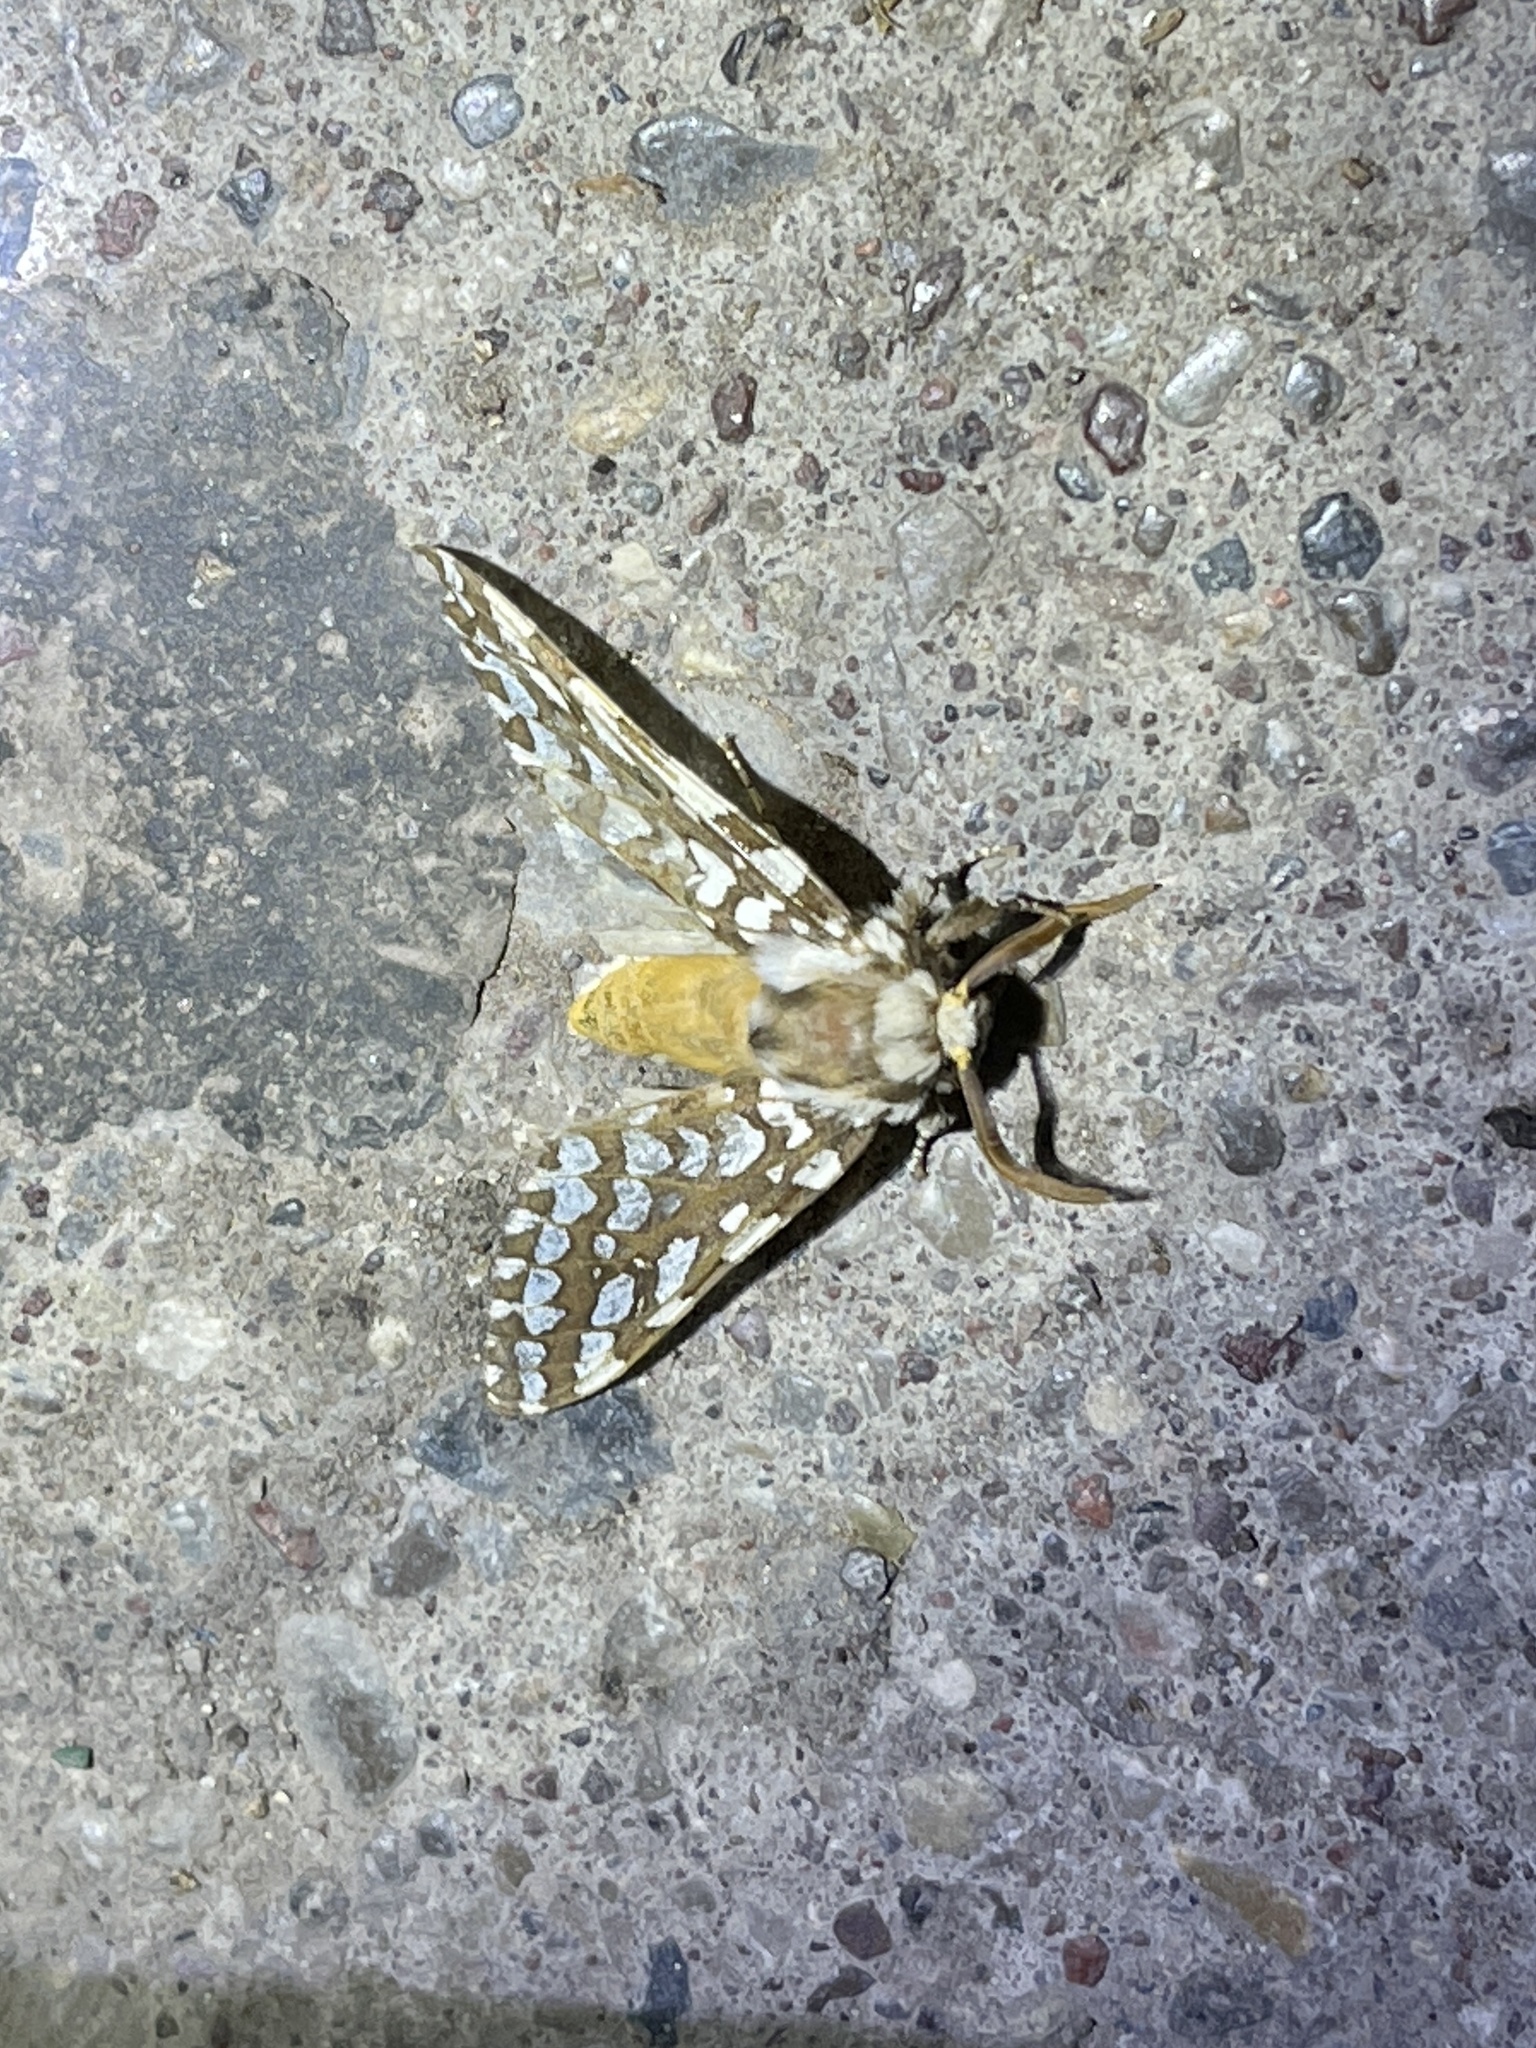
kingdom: Animalia
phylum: Arthropoda
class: Insecta
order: Lepidoptera
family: Erebidae
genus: Lophocampa
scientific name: Lophocampa argentata
